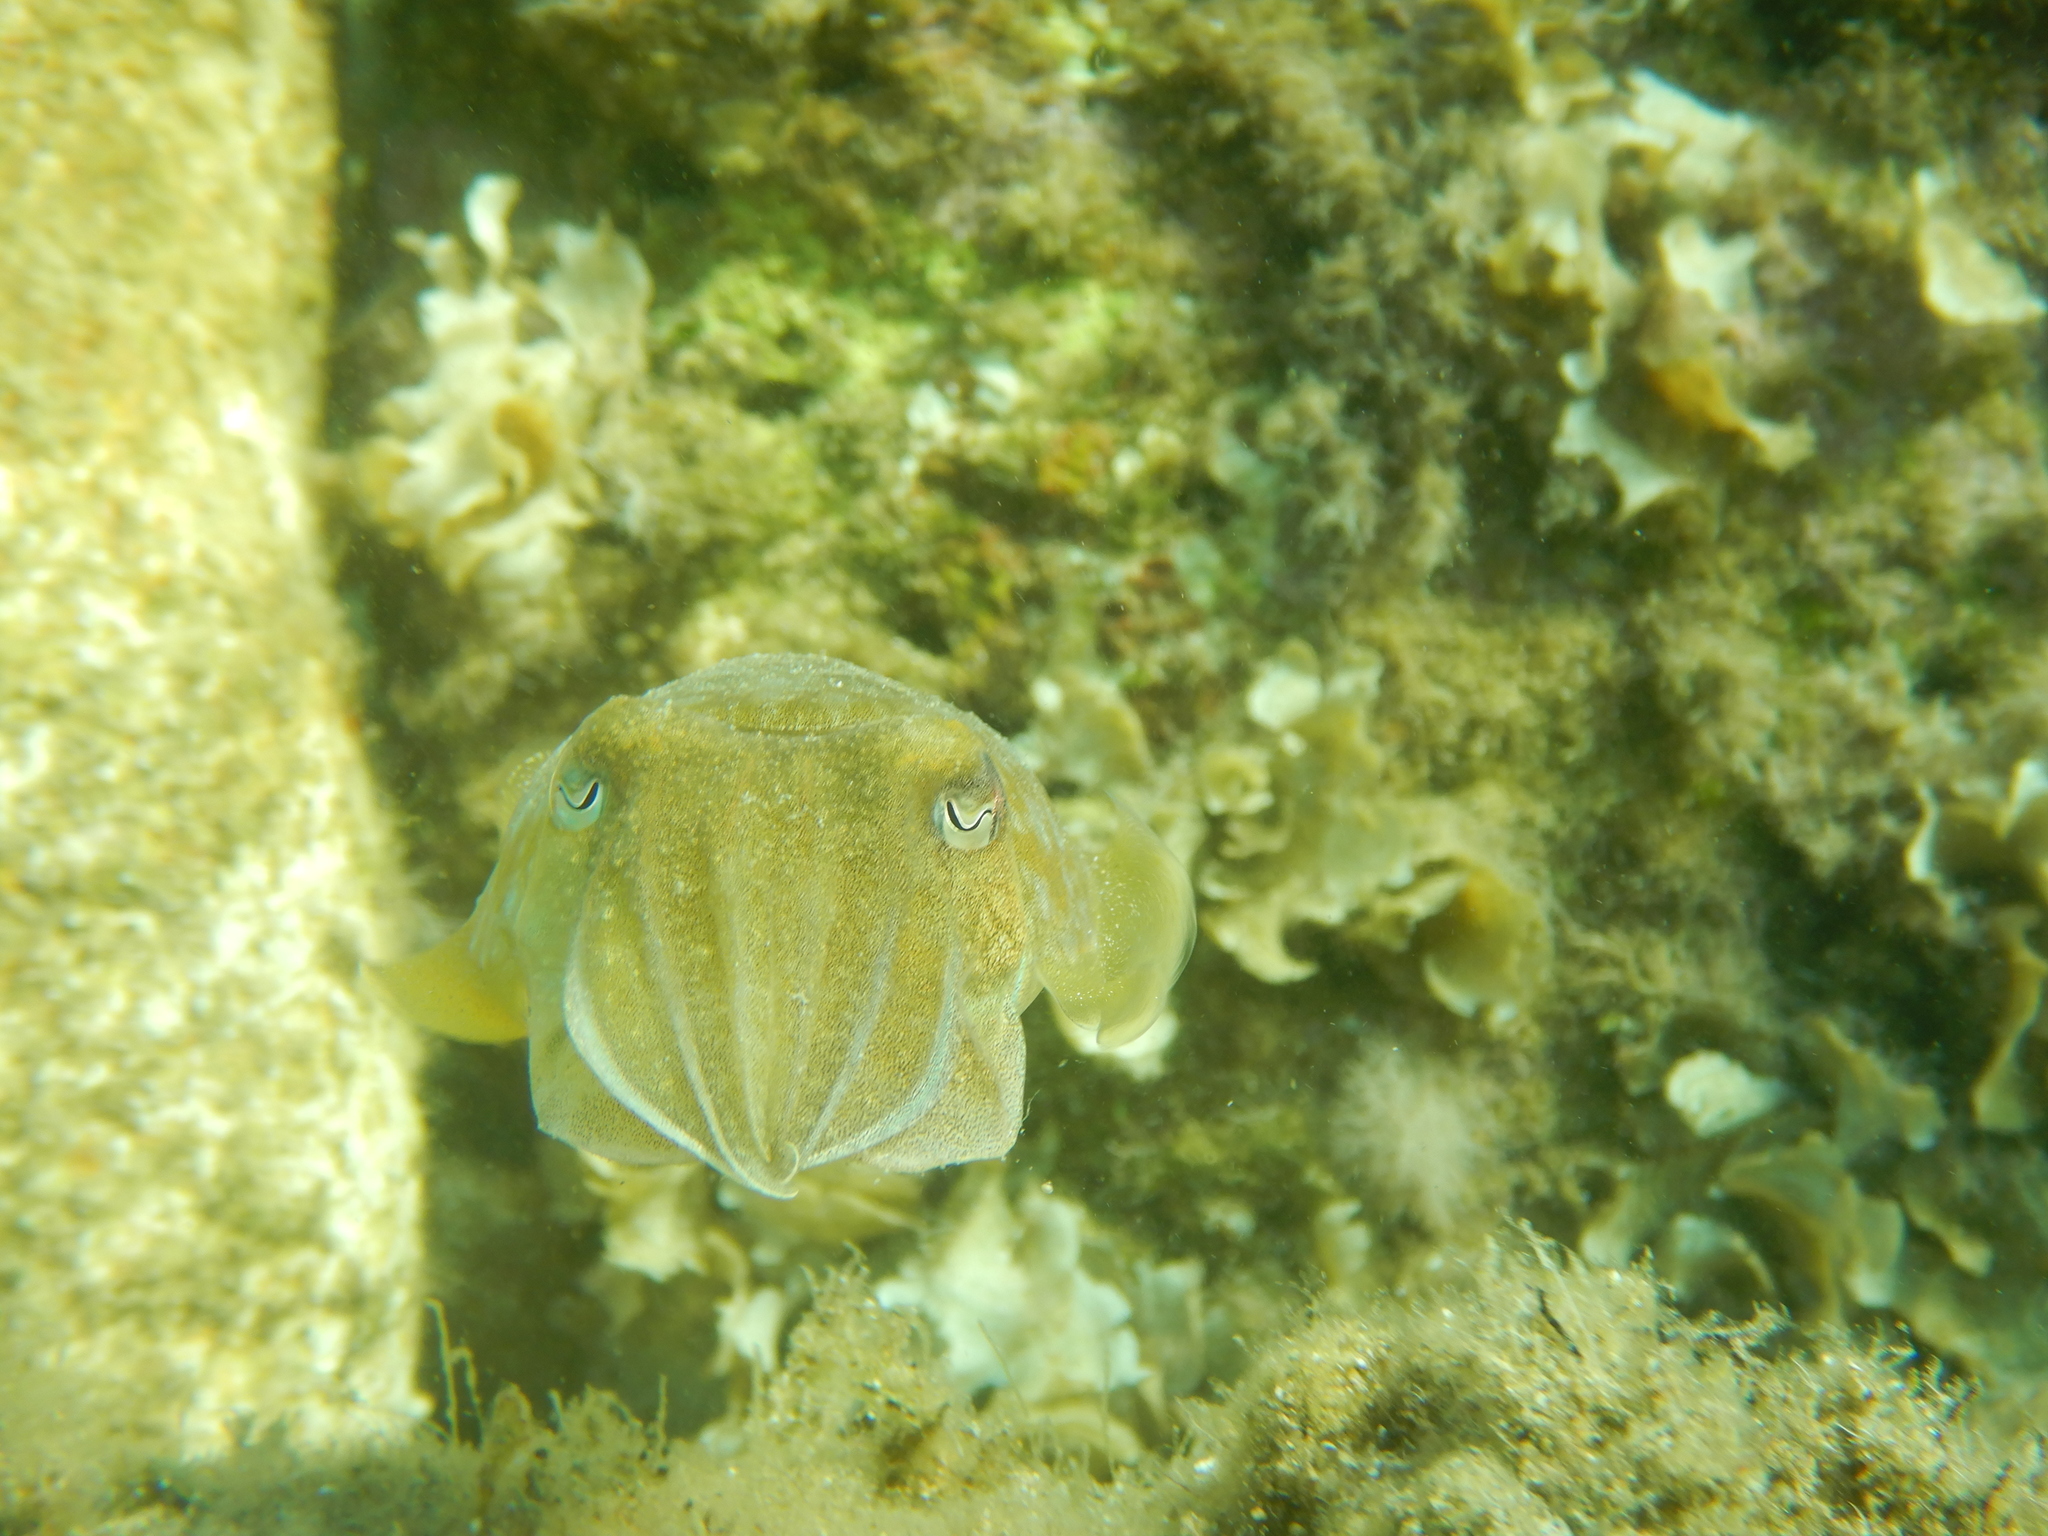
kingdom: Animalia
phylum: Mollusca
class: Cephalopoda
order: Sepiida
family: Sepiidae
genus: Sepia
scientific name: Sepia officinalis
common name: Common cuttlefish
